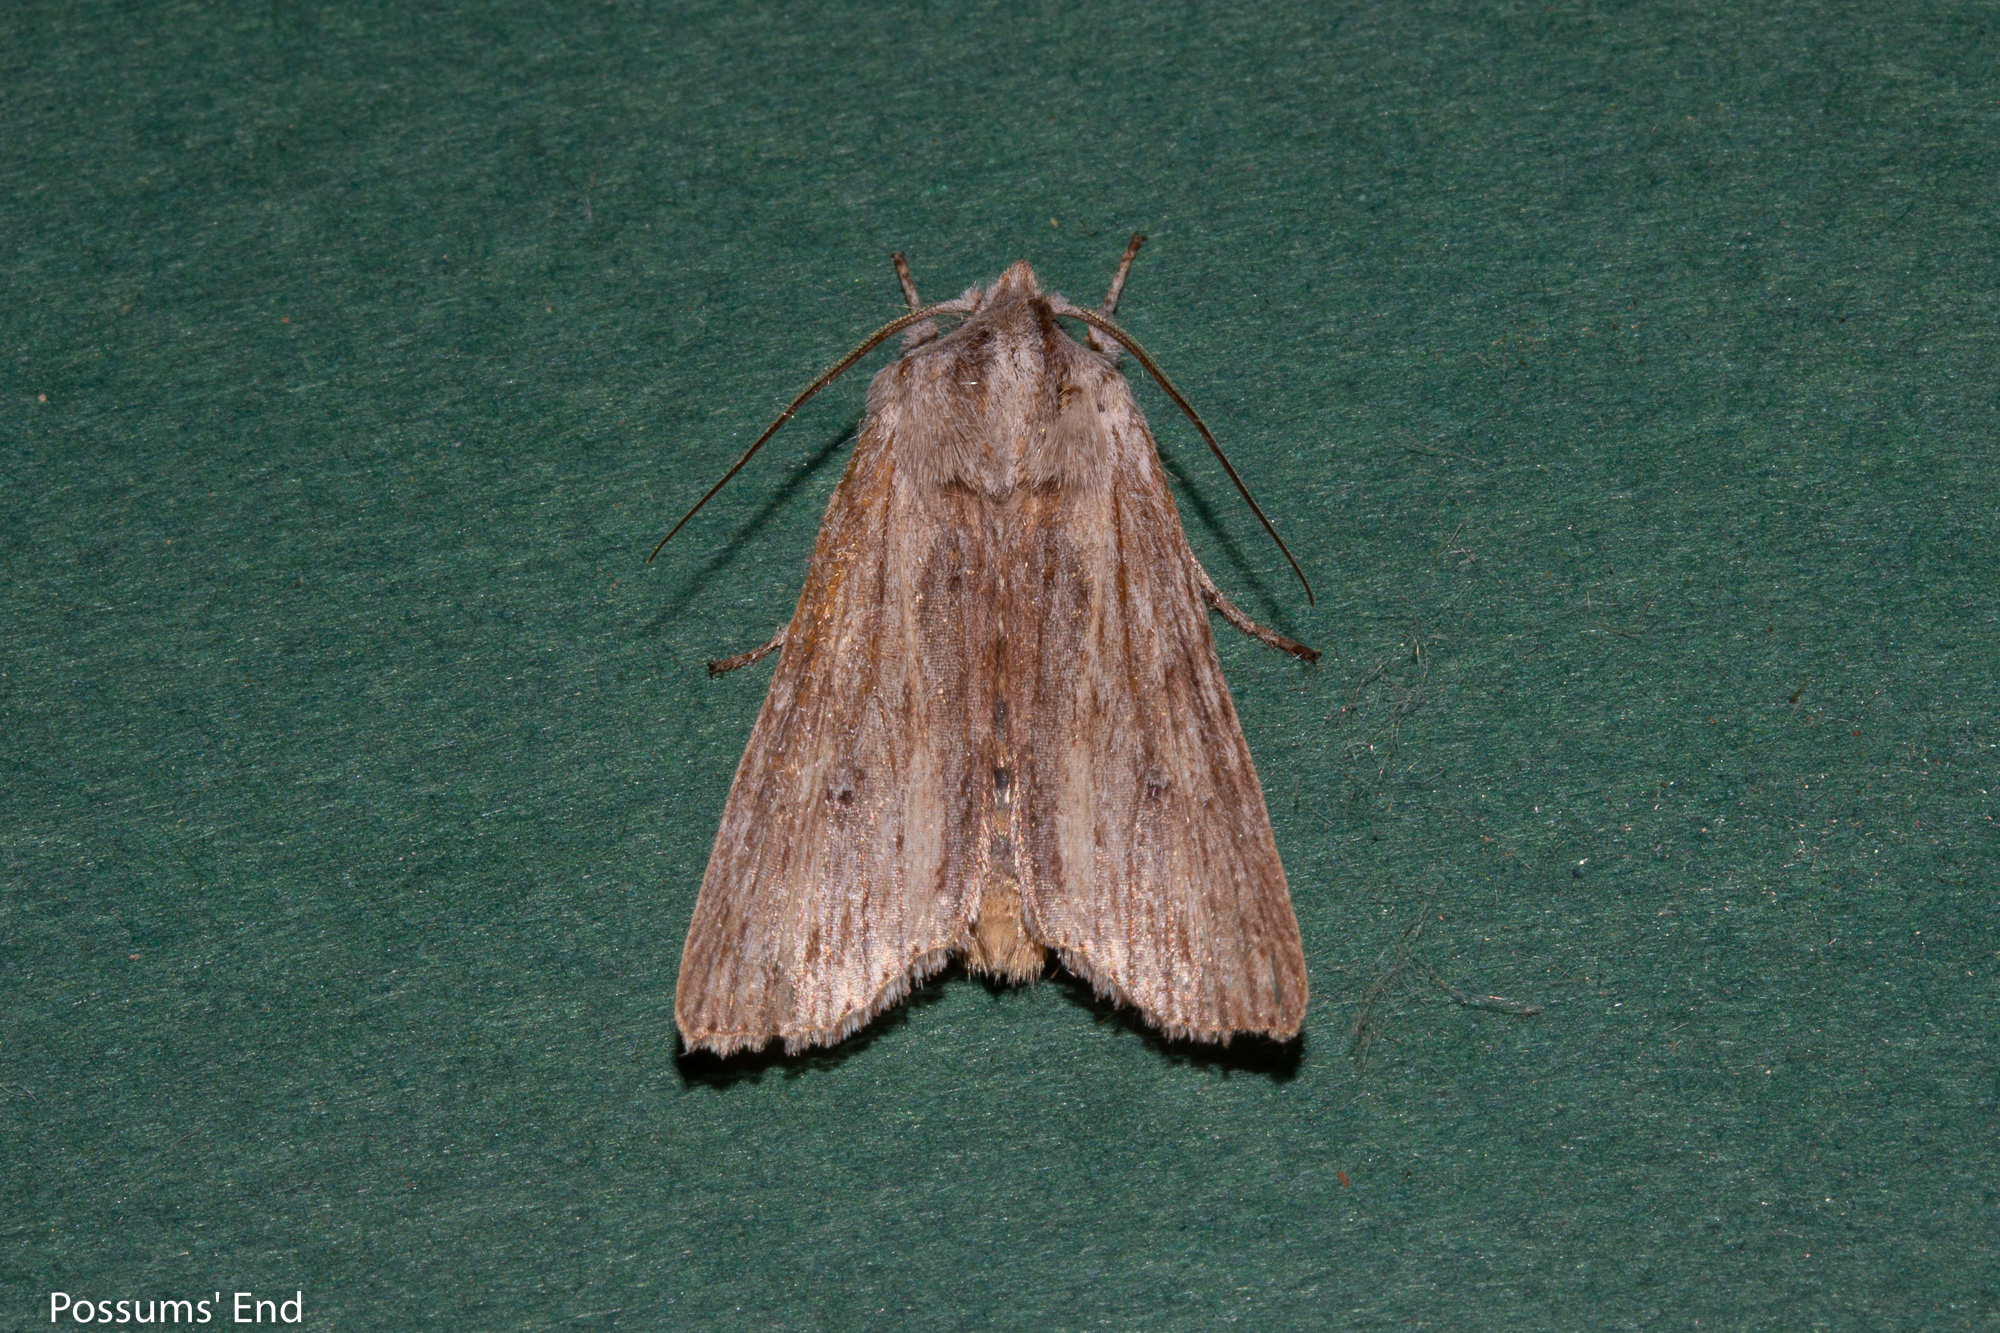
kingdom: Animalia
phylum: Arthropoda
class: Insecta
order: Lepidoptera
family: Noctuidae
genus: Physetica
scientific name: Physetica prionistis
